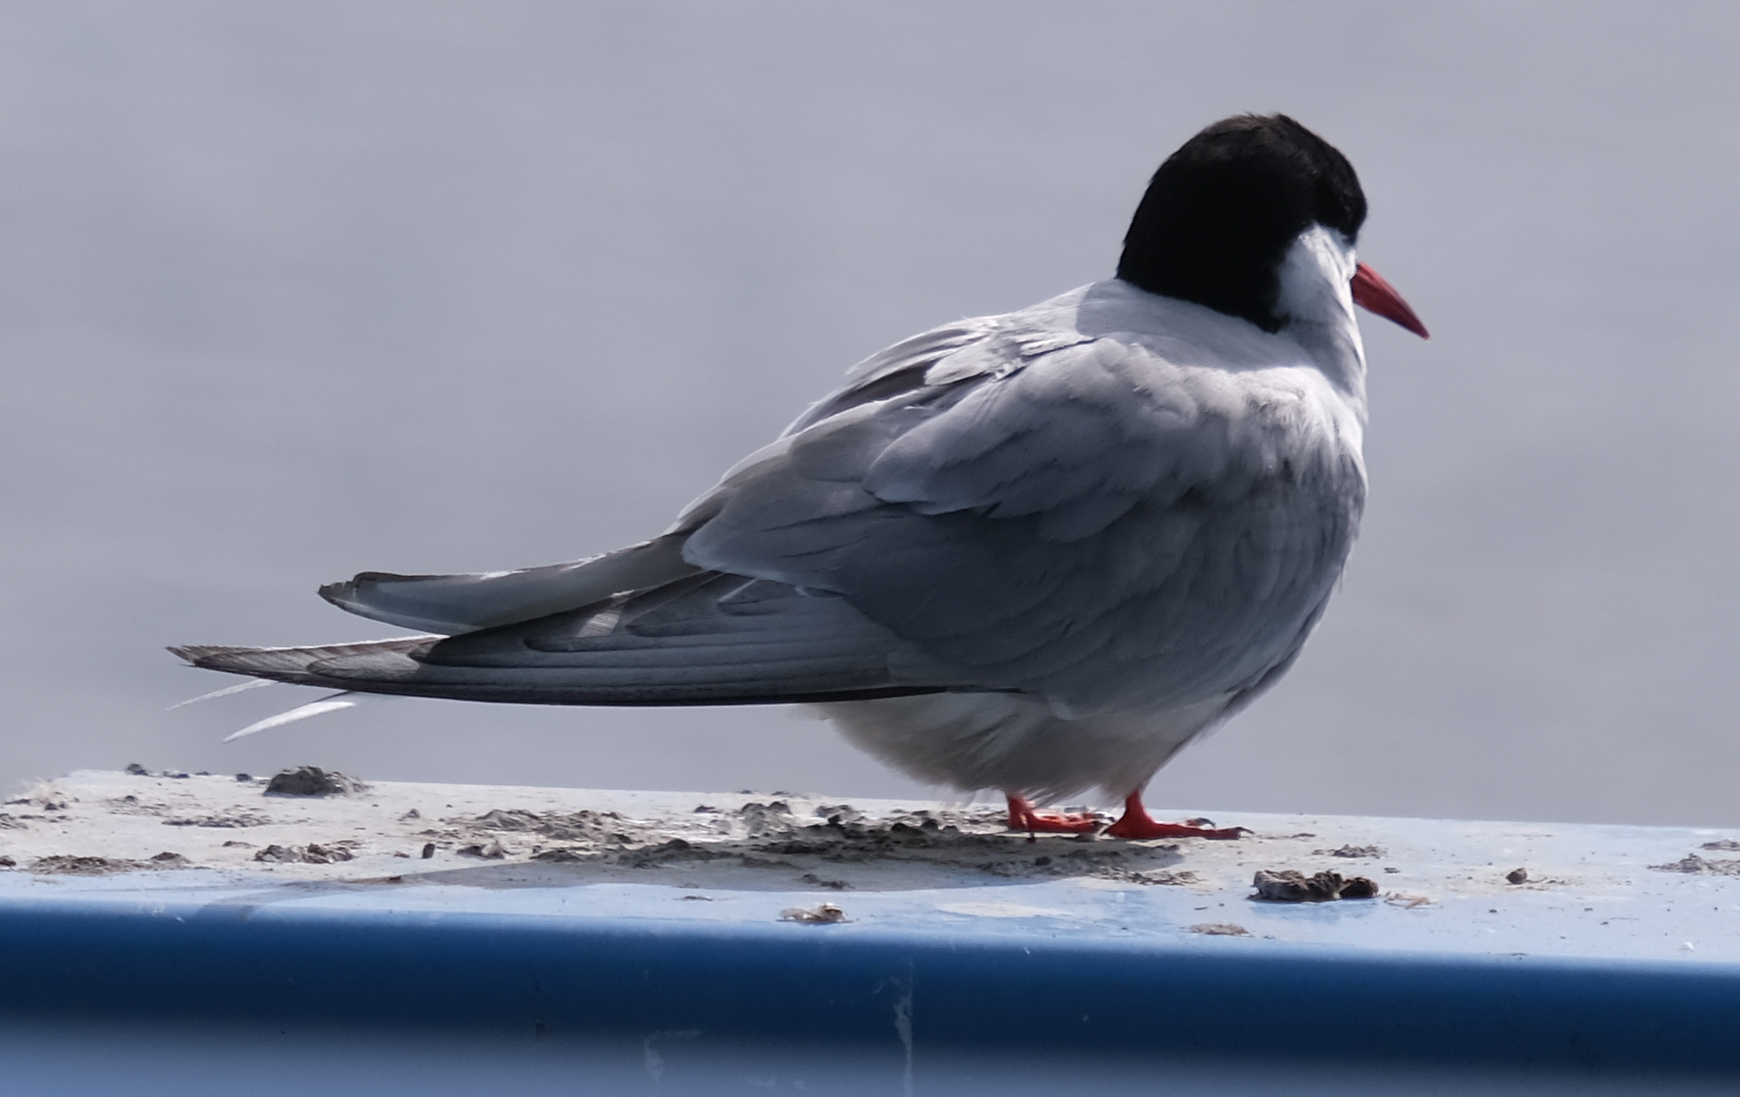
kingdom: Animalia
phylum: Chordata
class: Aves
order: Charadriiformes
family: Laridae
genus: Sterna
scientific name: Sterna paradisaea
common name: Arctic tern
